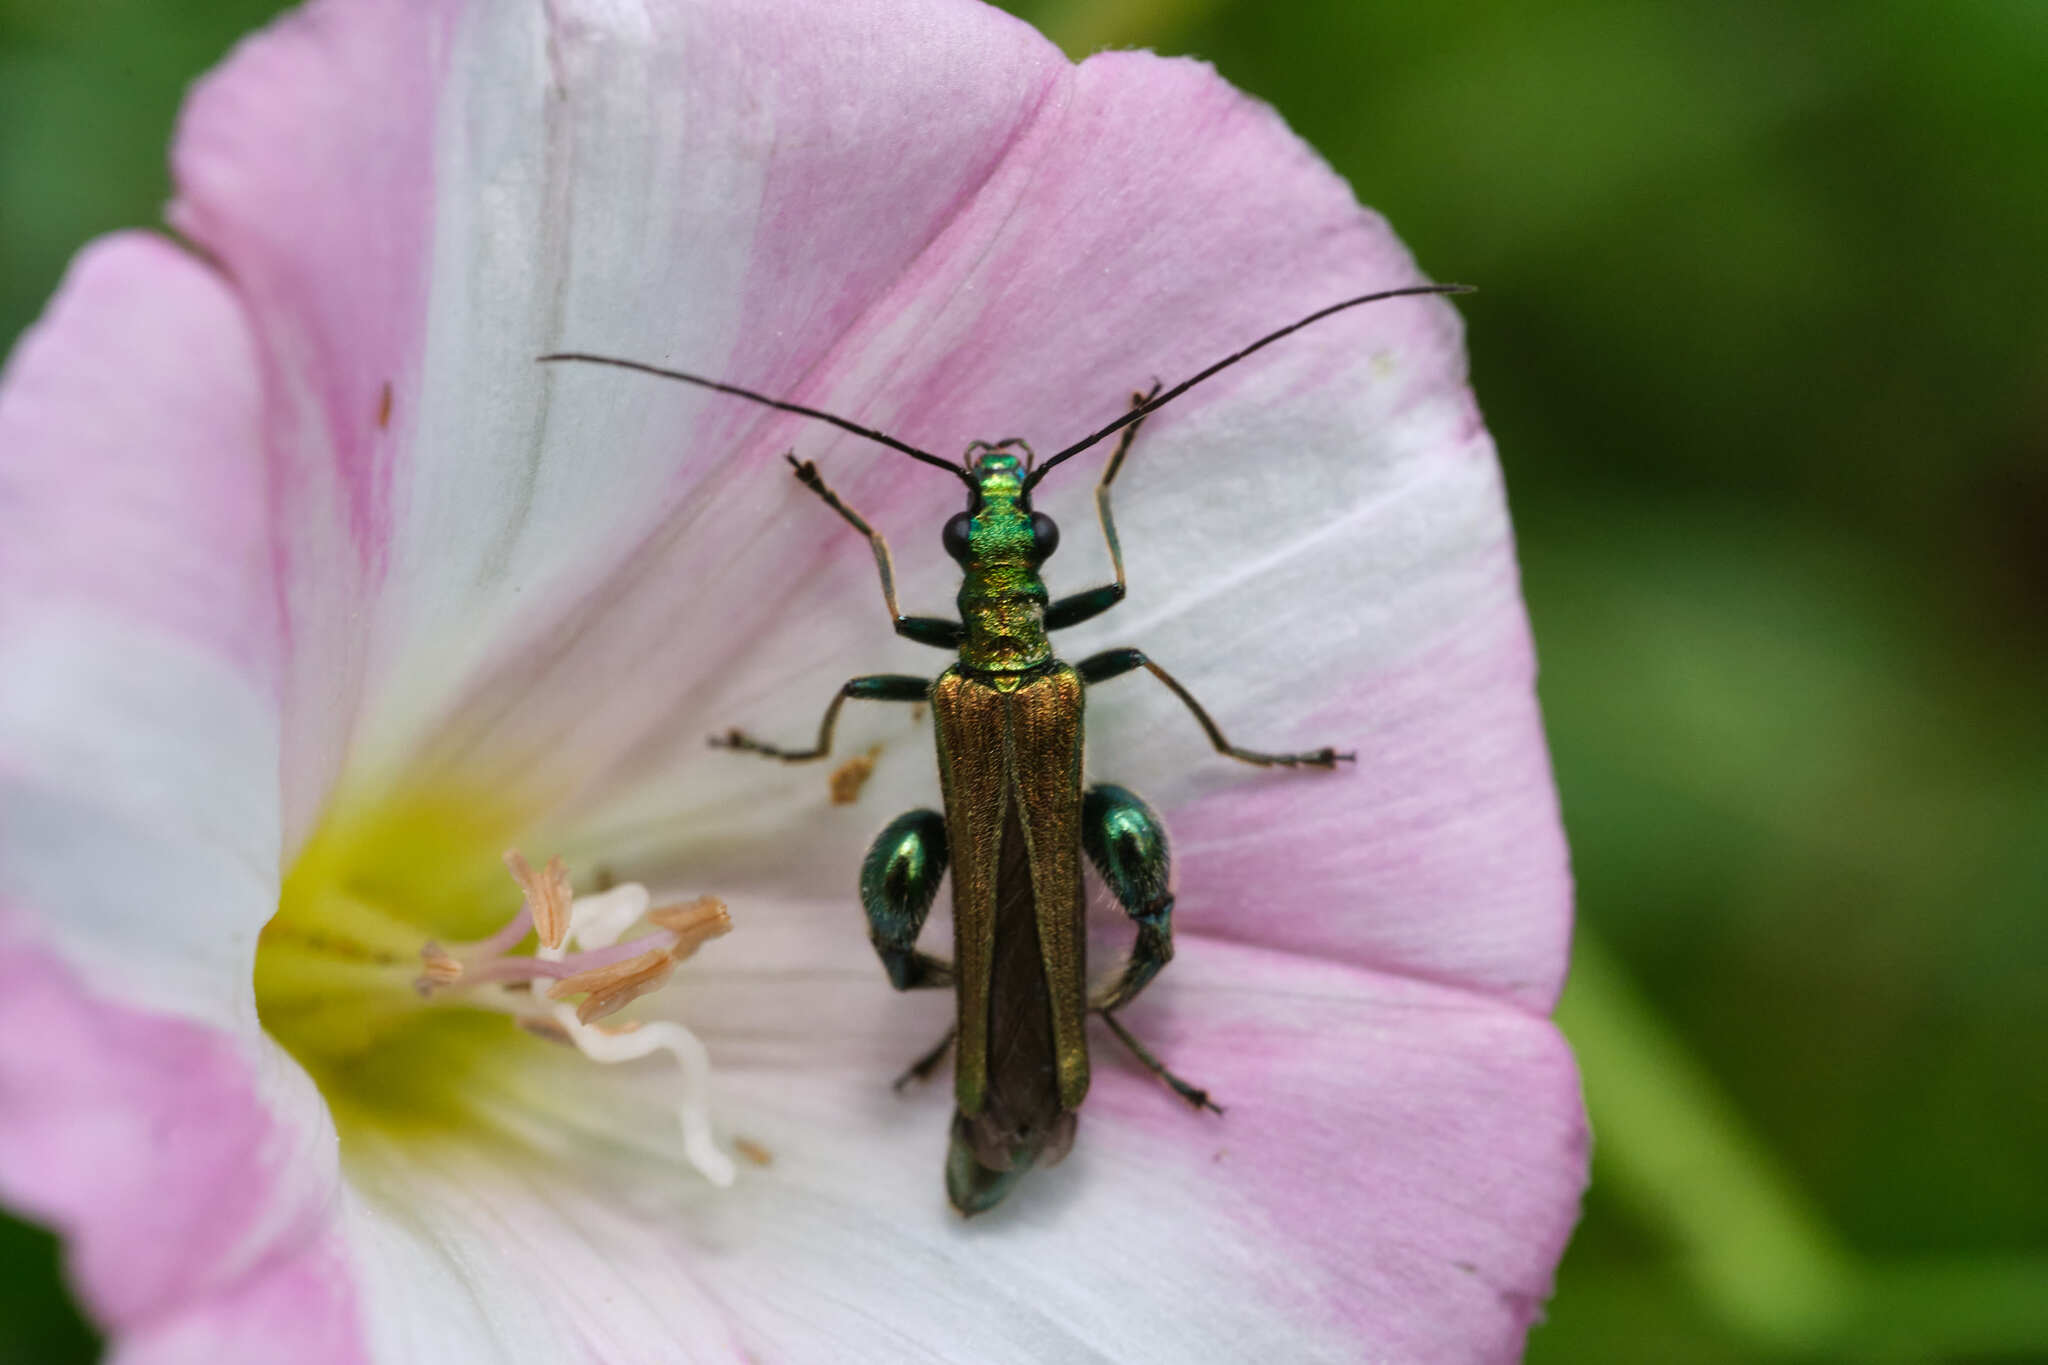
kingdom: Animalia
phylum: Arthropoda
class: Insecta
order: Coleoptera
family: Oedemeridae
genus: Oedemera
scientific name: Oedemera nobilis
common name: Swollen-thighed beetle
